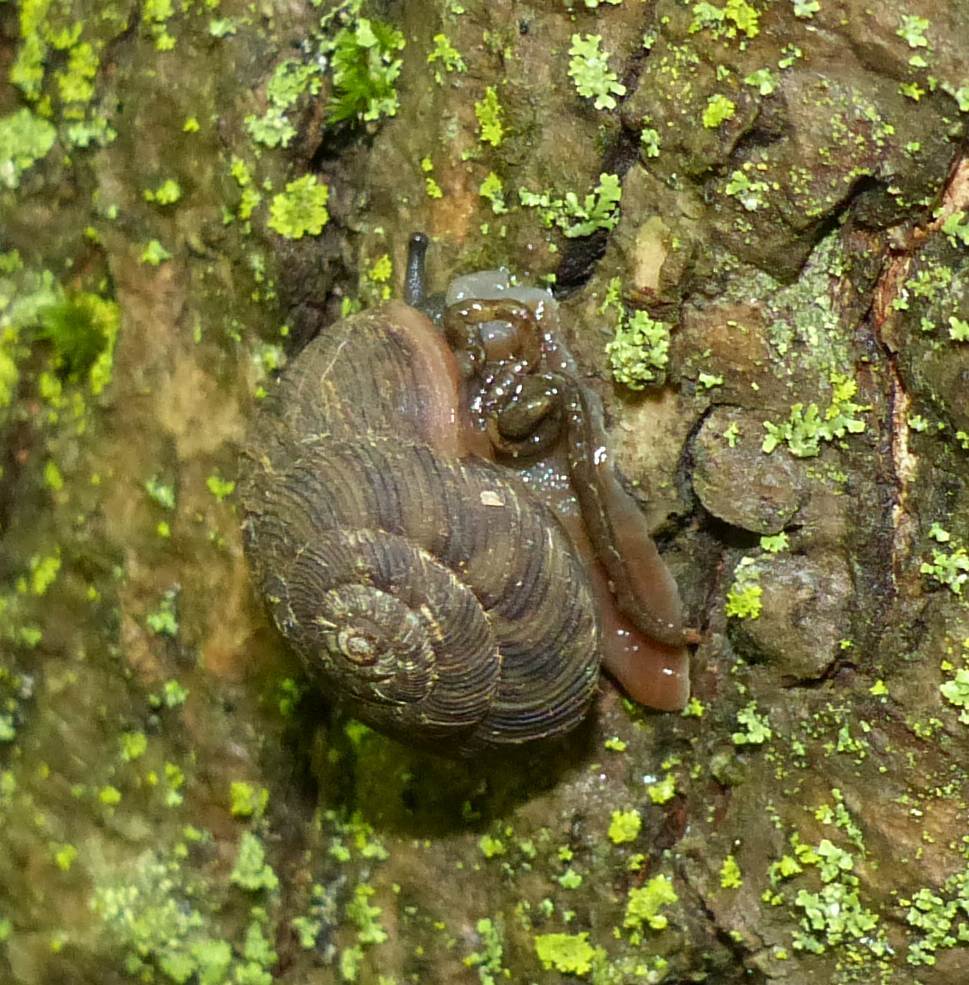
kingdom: Animalia
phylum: Mollusca
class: Gastropoda
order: Stylommatophora
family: Discidae
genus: Anguispira
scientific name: Anguispira alternata
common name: Flamed tigersnail
